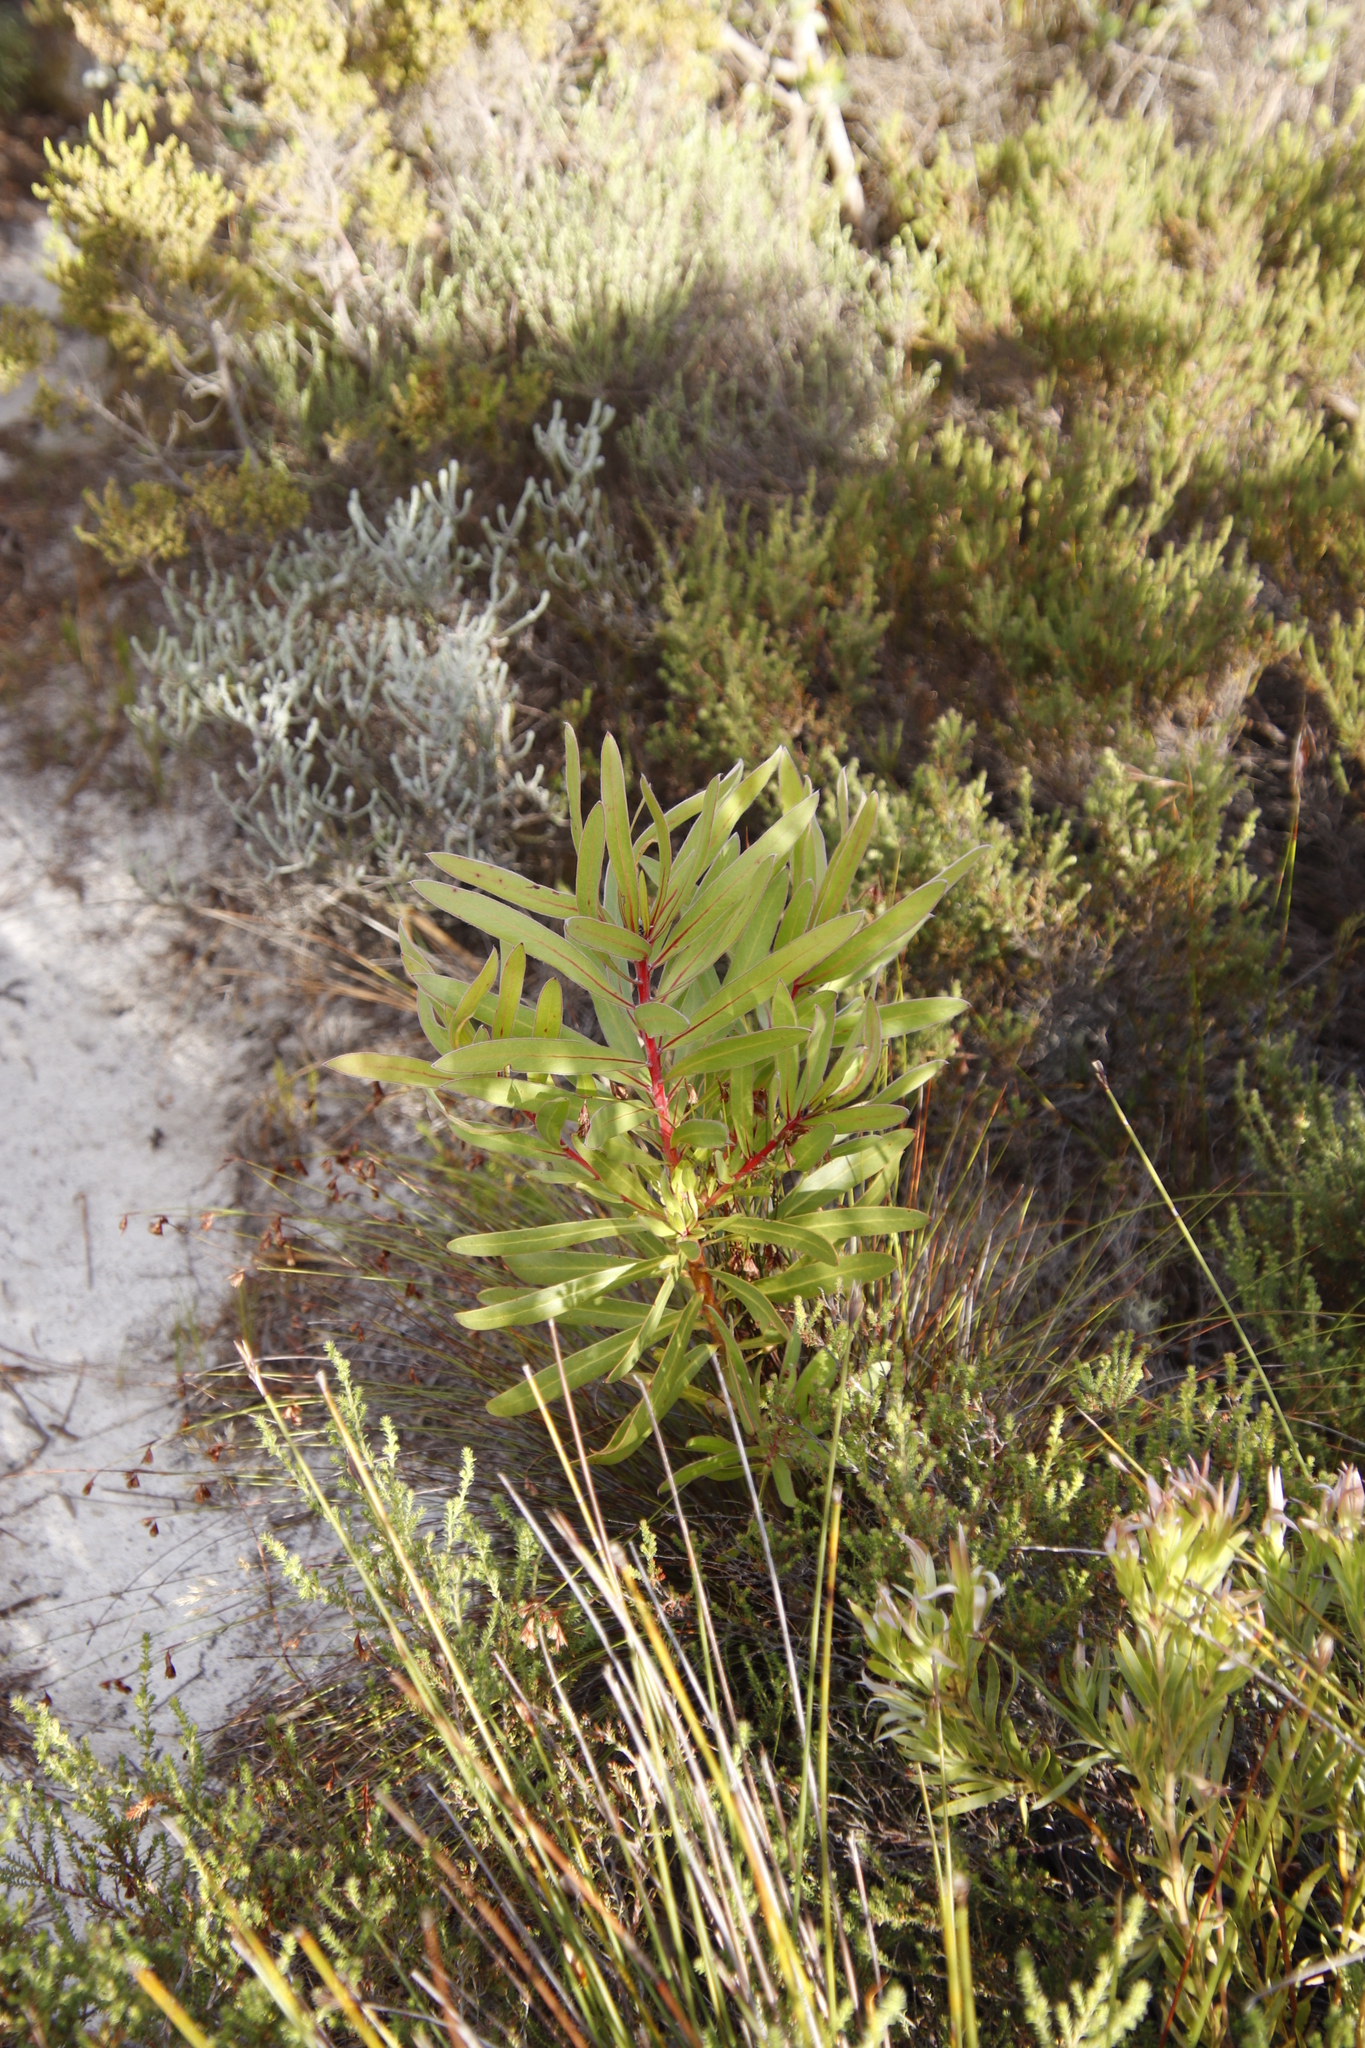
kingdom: Plantae
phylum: Tracheophyta
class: Magnoliopsida
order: Proteales
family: Proteaceae
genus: Protea
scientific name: Protea lepidocarpodendron
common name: Black-bearded protea
